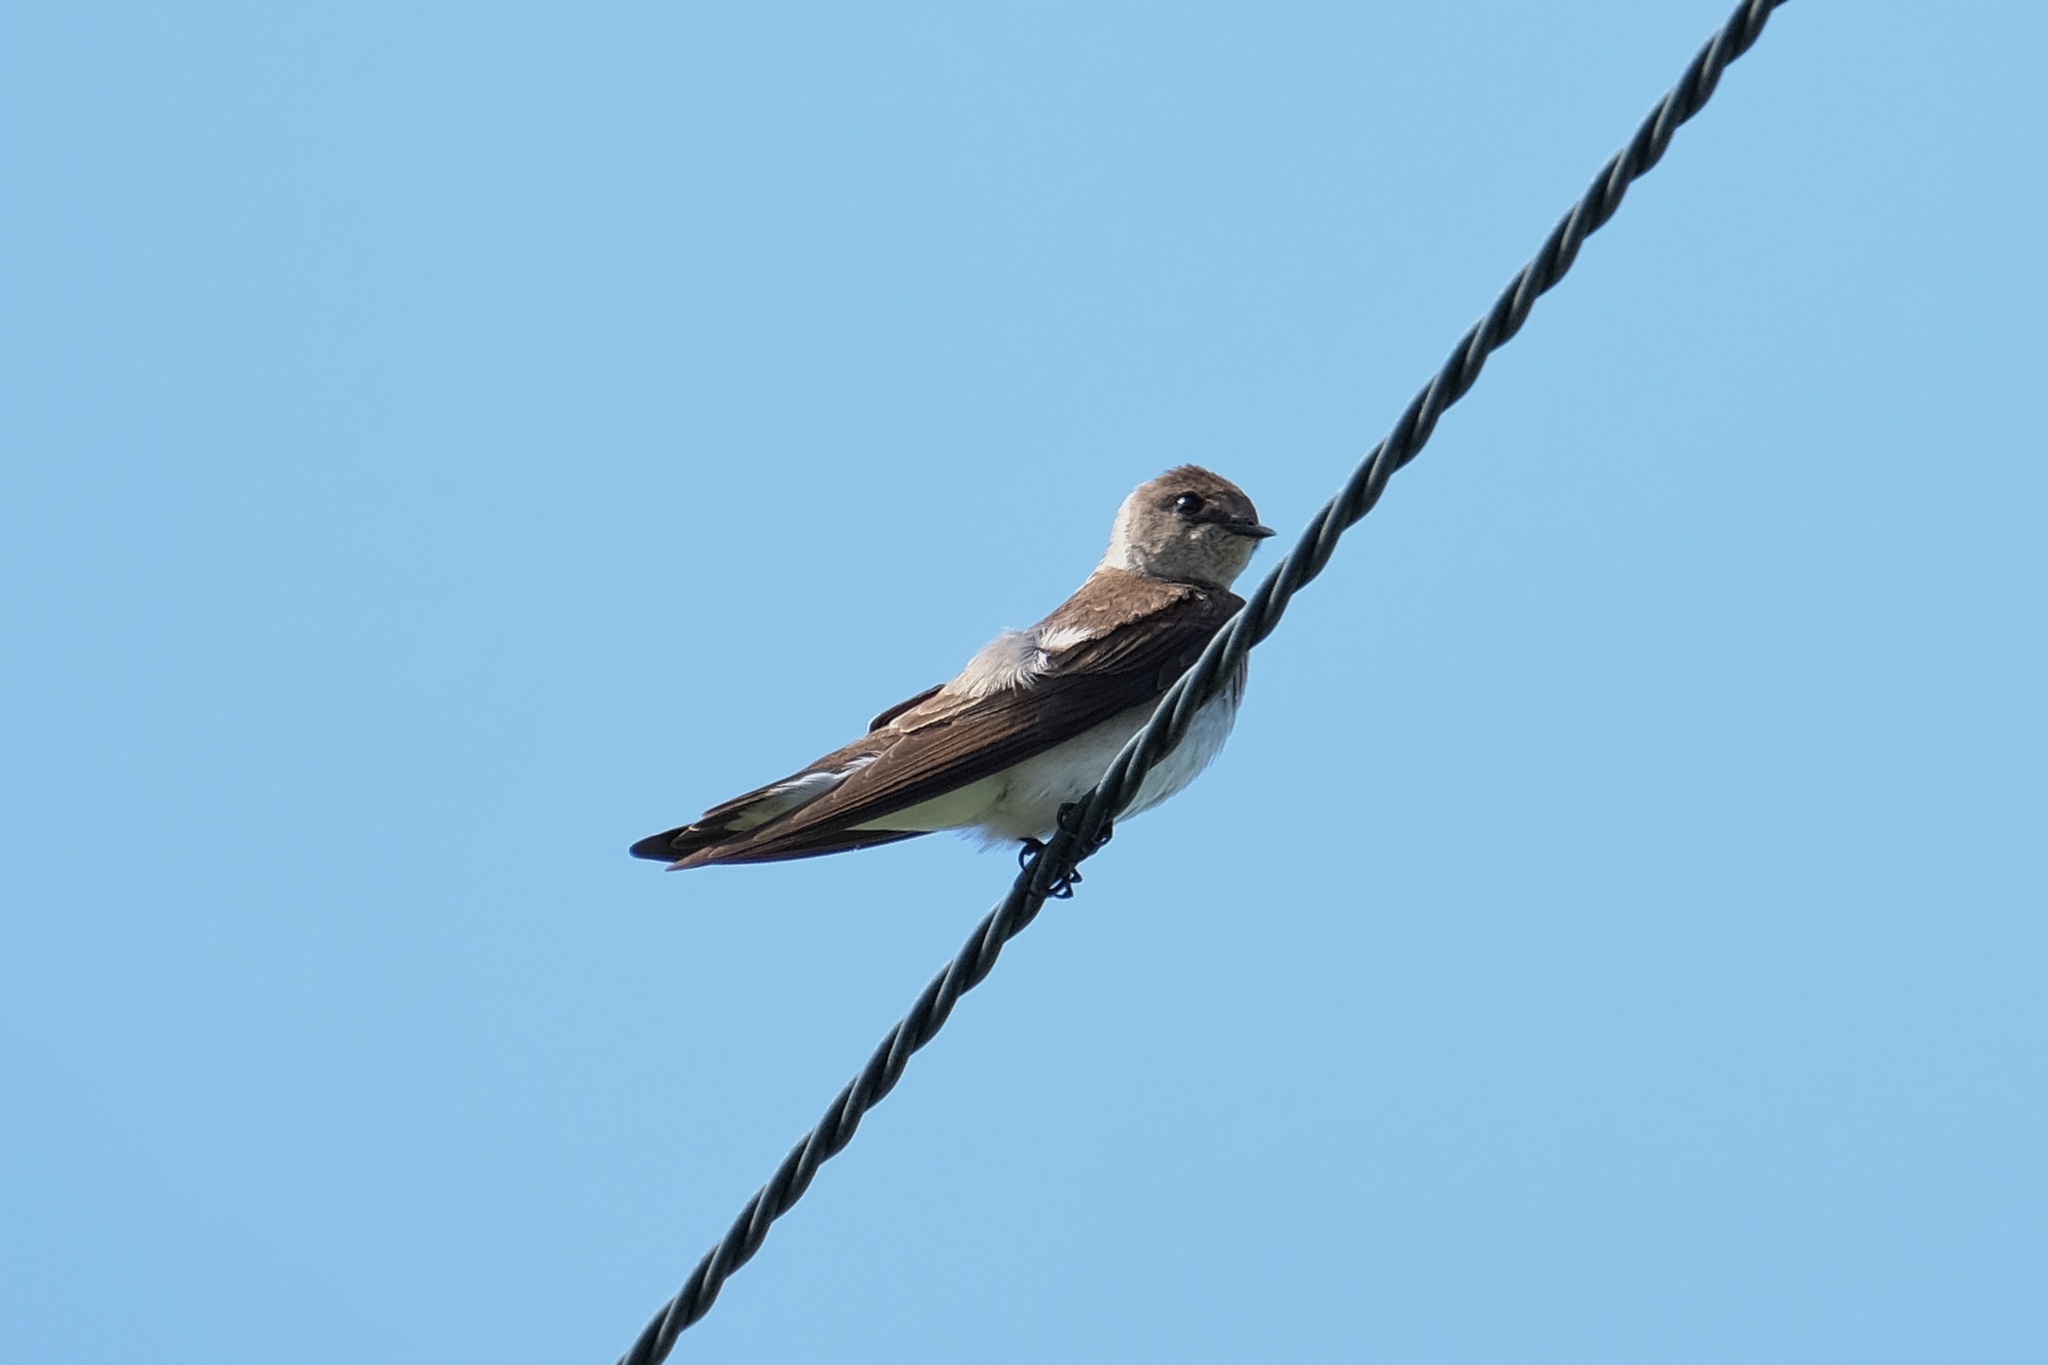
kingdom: Animalia
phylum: Chordata
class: Aves
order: Passeriformes
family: Hirundinidae
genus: Stelgidopteryx
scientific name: Stelgidopteryx serripennis
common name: Northern rough-winged swallow
